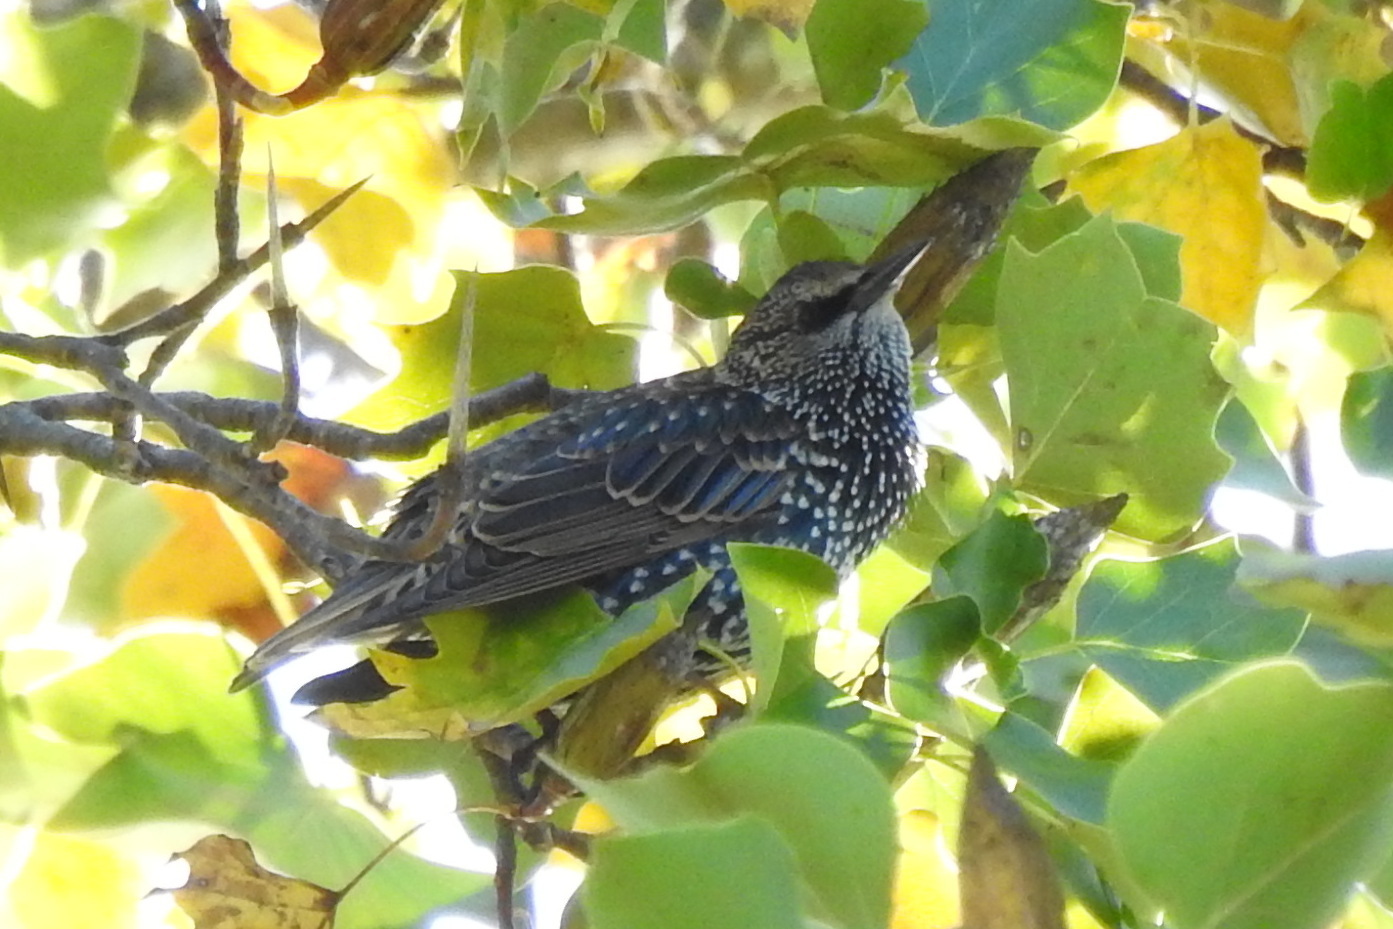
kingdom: Animalia
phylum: Chordata
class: Aves
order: Passeriformes
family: Sturnidae
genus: Sturnus
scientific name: Sturnus vulgaris
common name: Common starling
